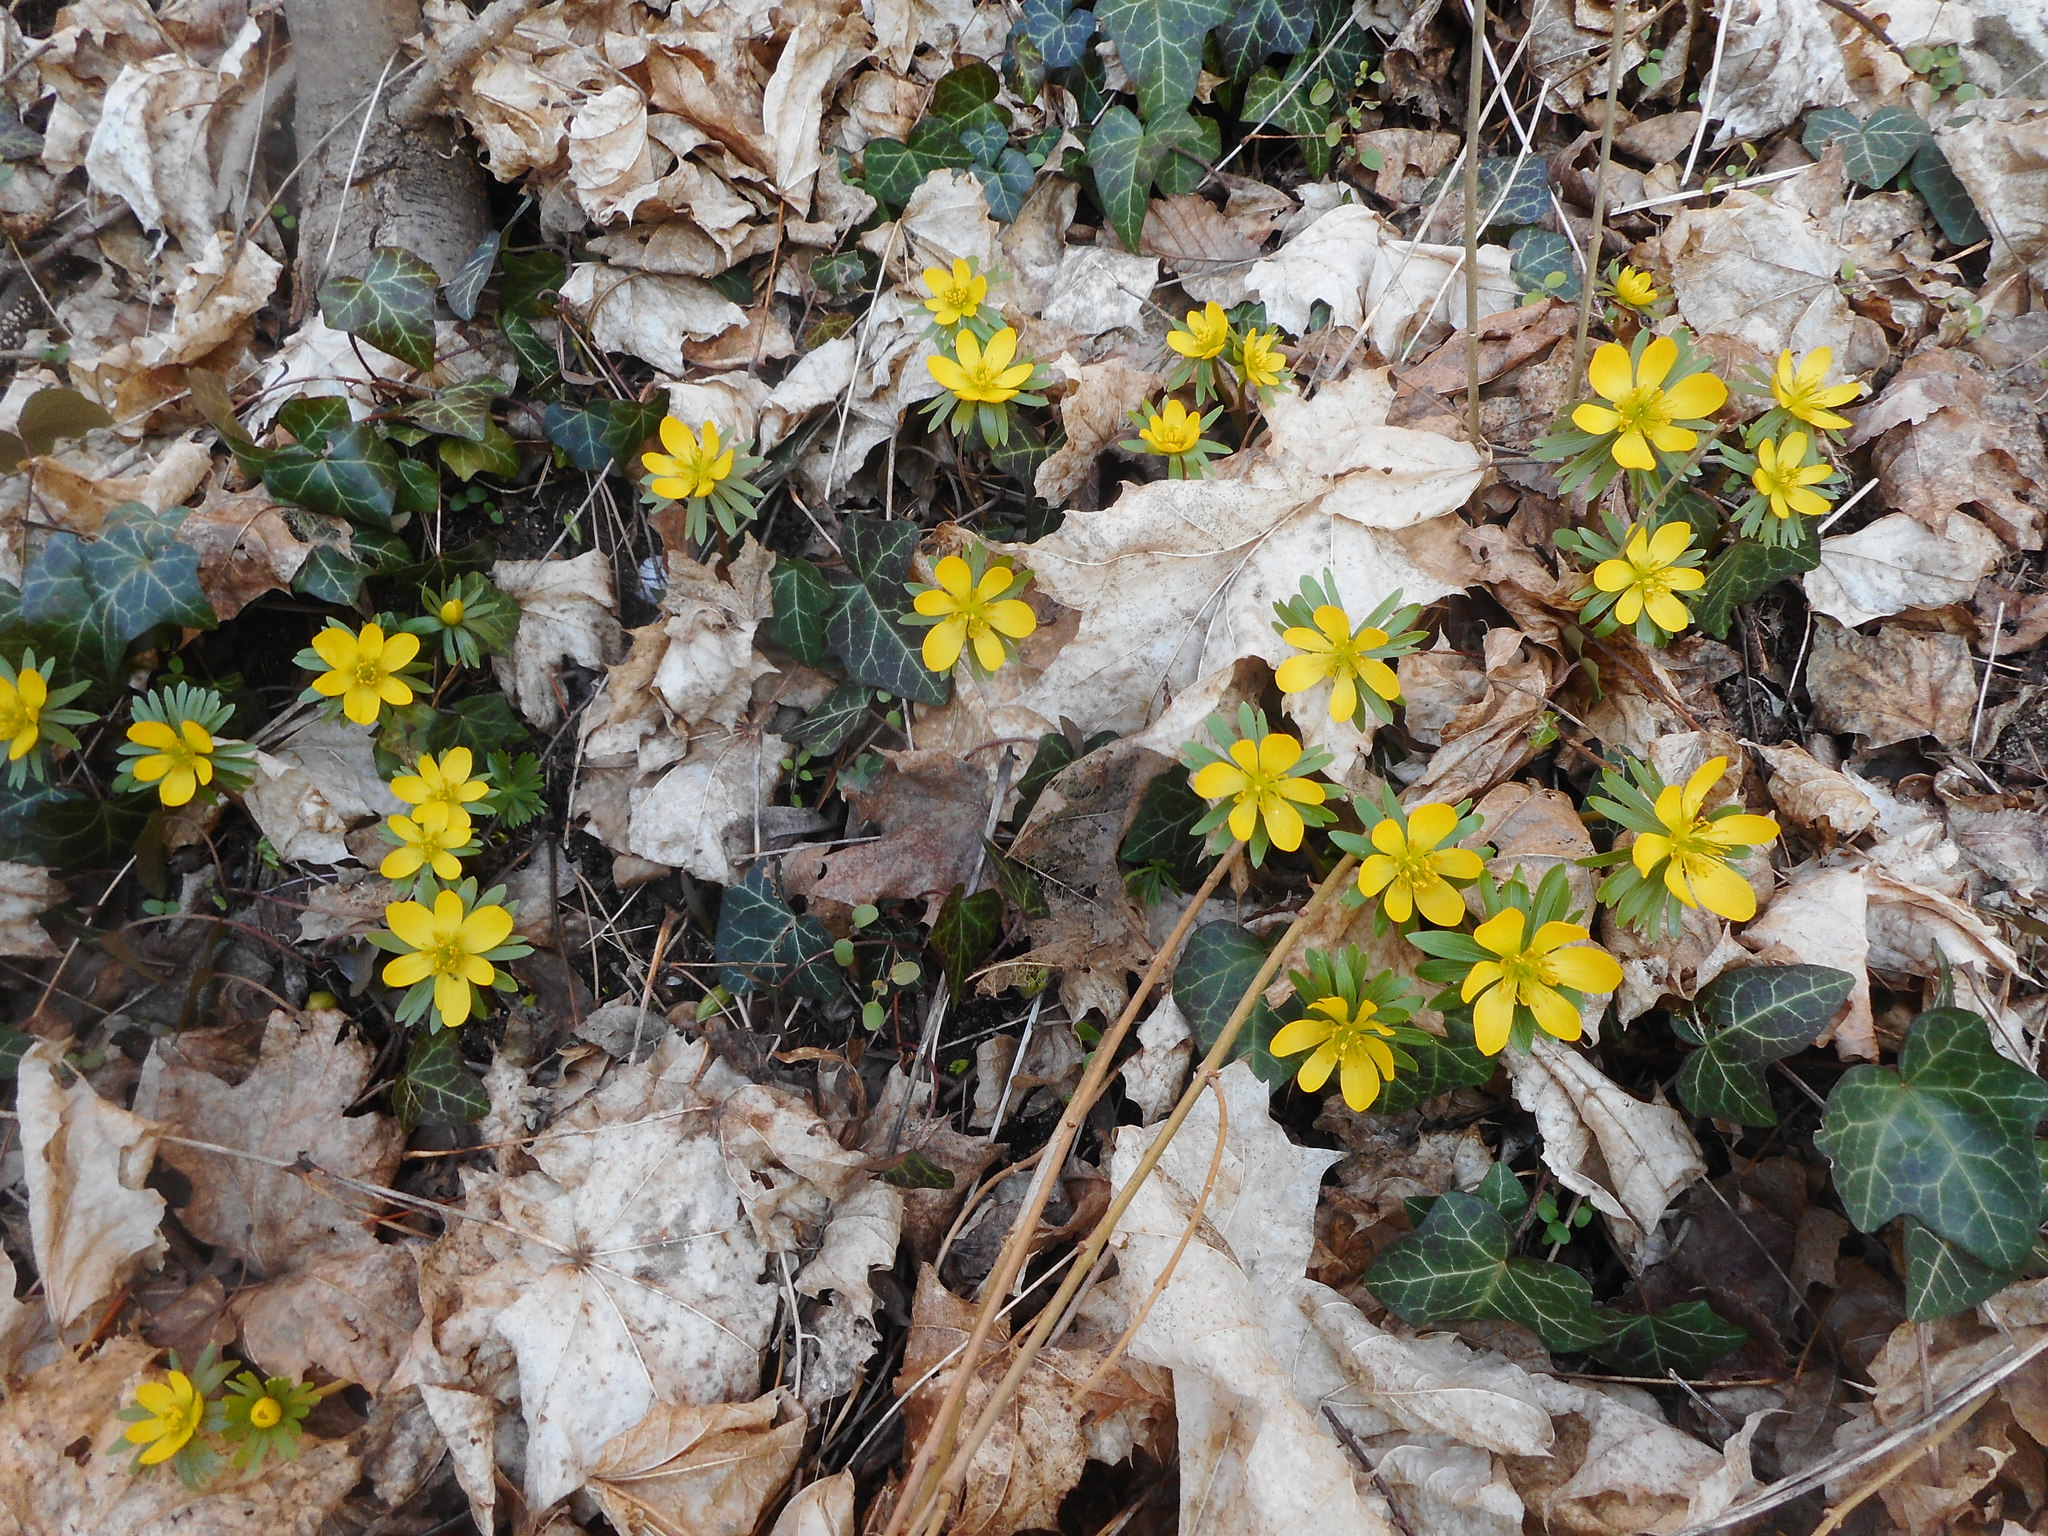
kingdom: Plantae
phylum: Tracheophyta
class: Magnoliopsida
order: Ranunculales
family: Ranunculaceae
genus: Eranthis
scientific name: Eranthis hyemalis
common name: Winter aconite
